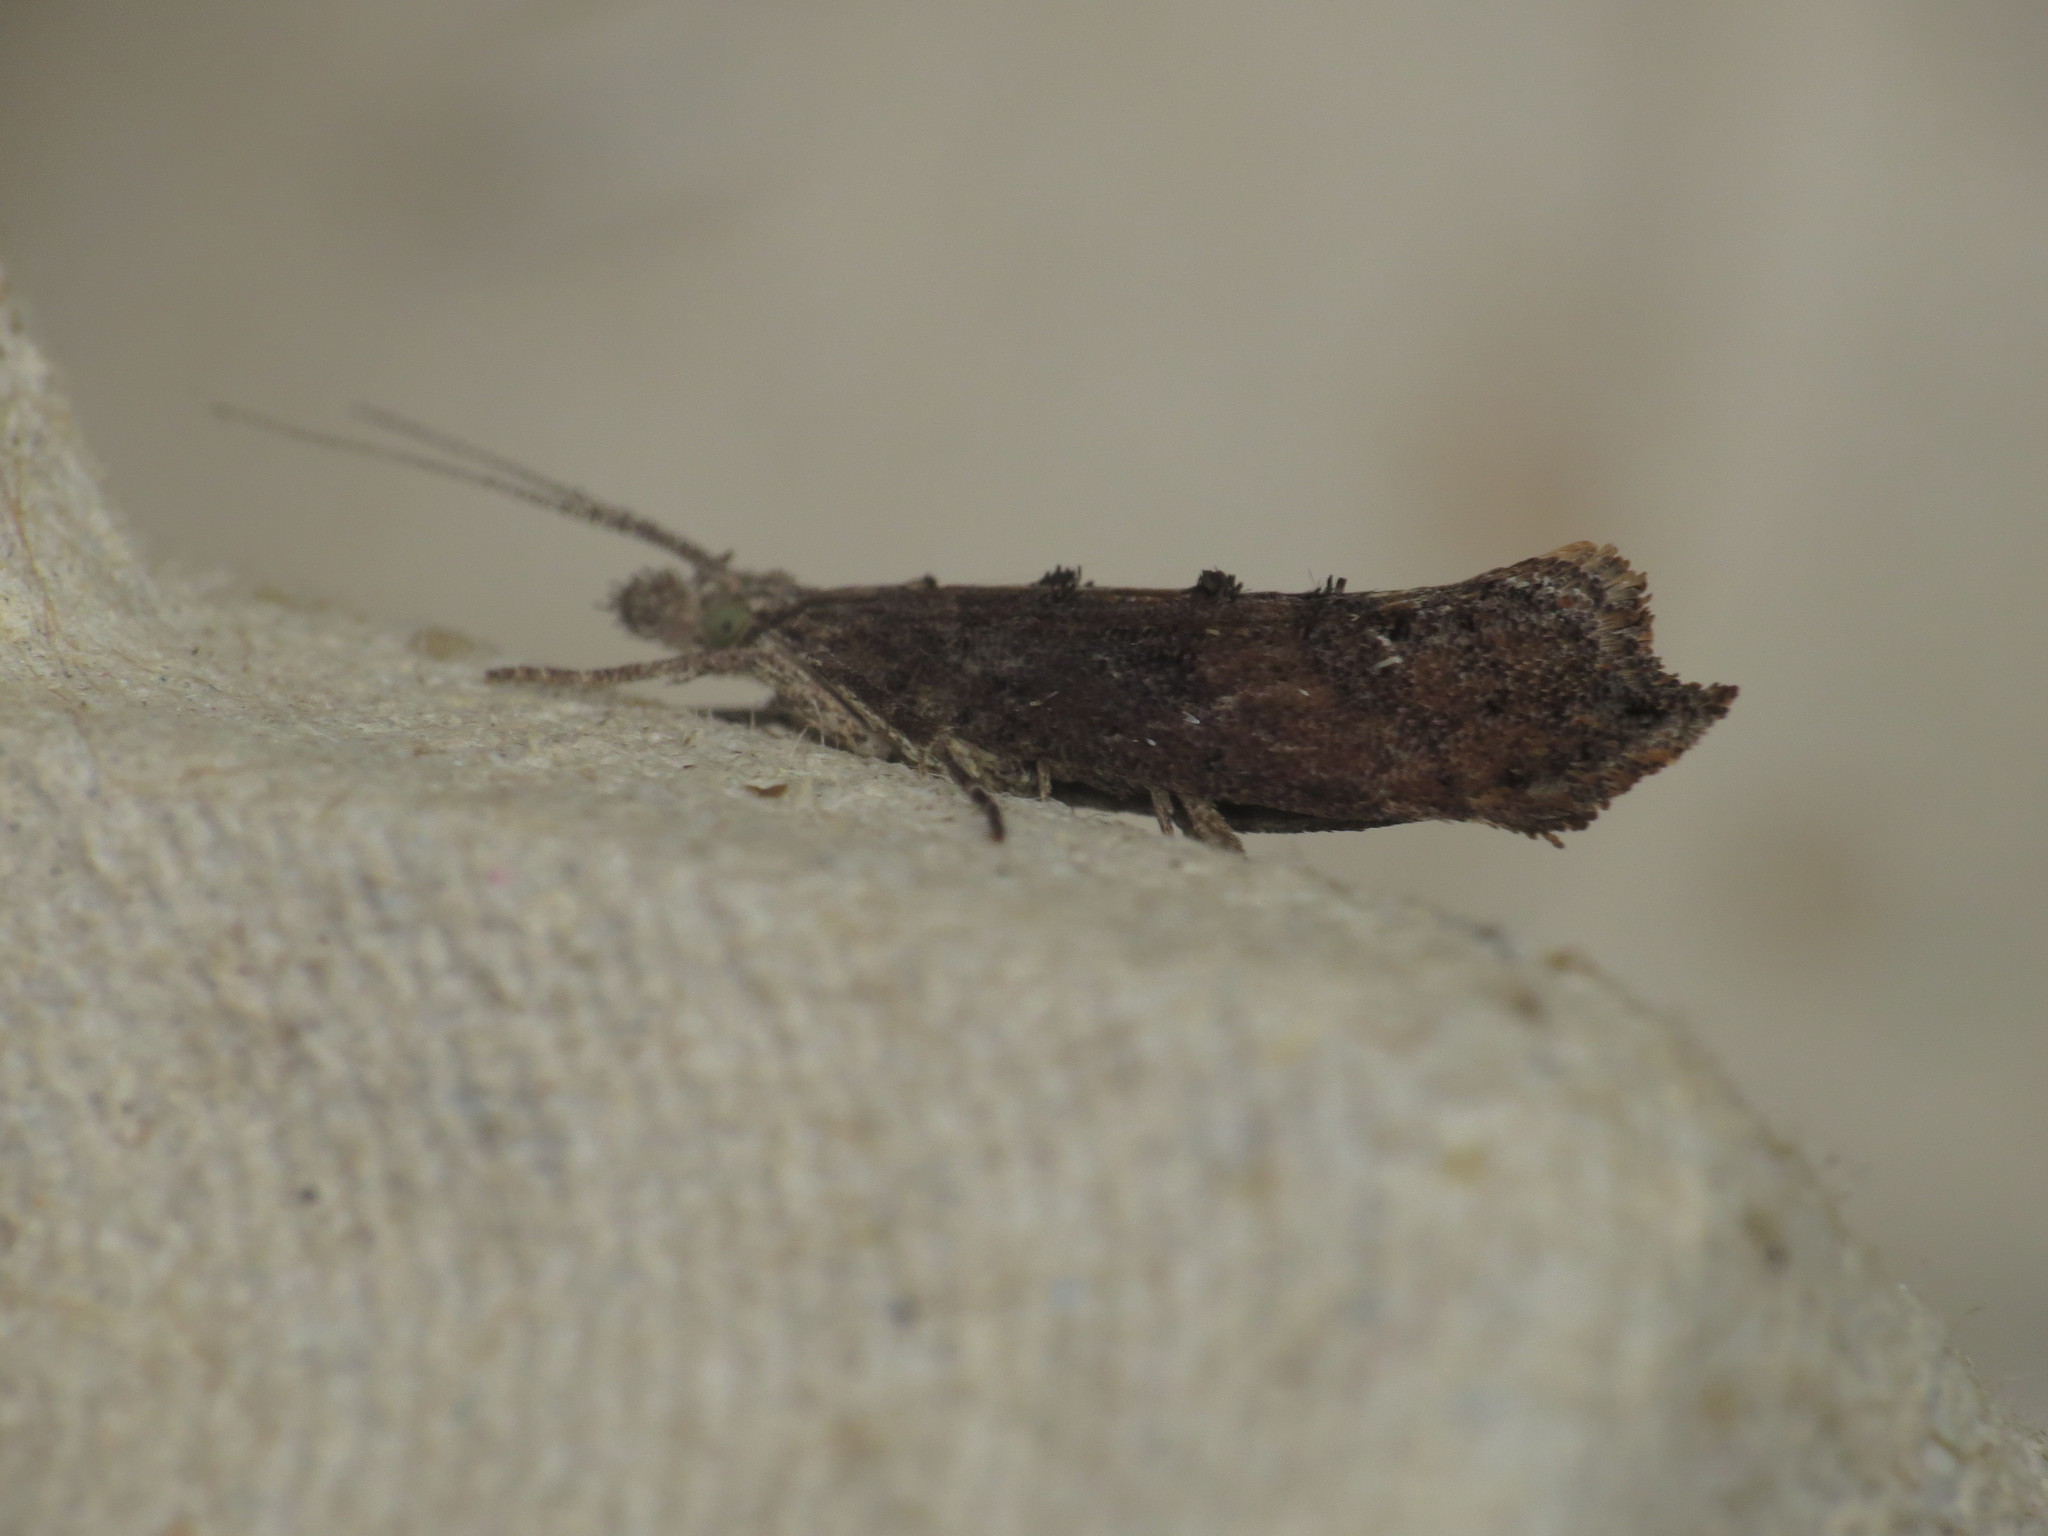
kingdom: Animalia
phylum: Arthropoda
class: Insecta
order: Lepidoptera
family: Ypsolophidae
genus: Ypsolopha
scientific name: Ypsolopha horridella
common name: Dark smudge
